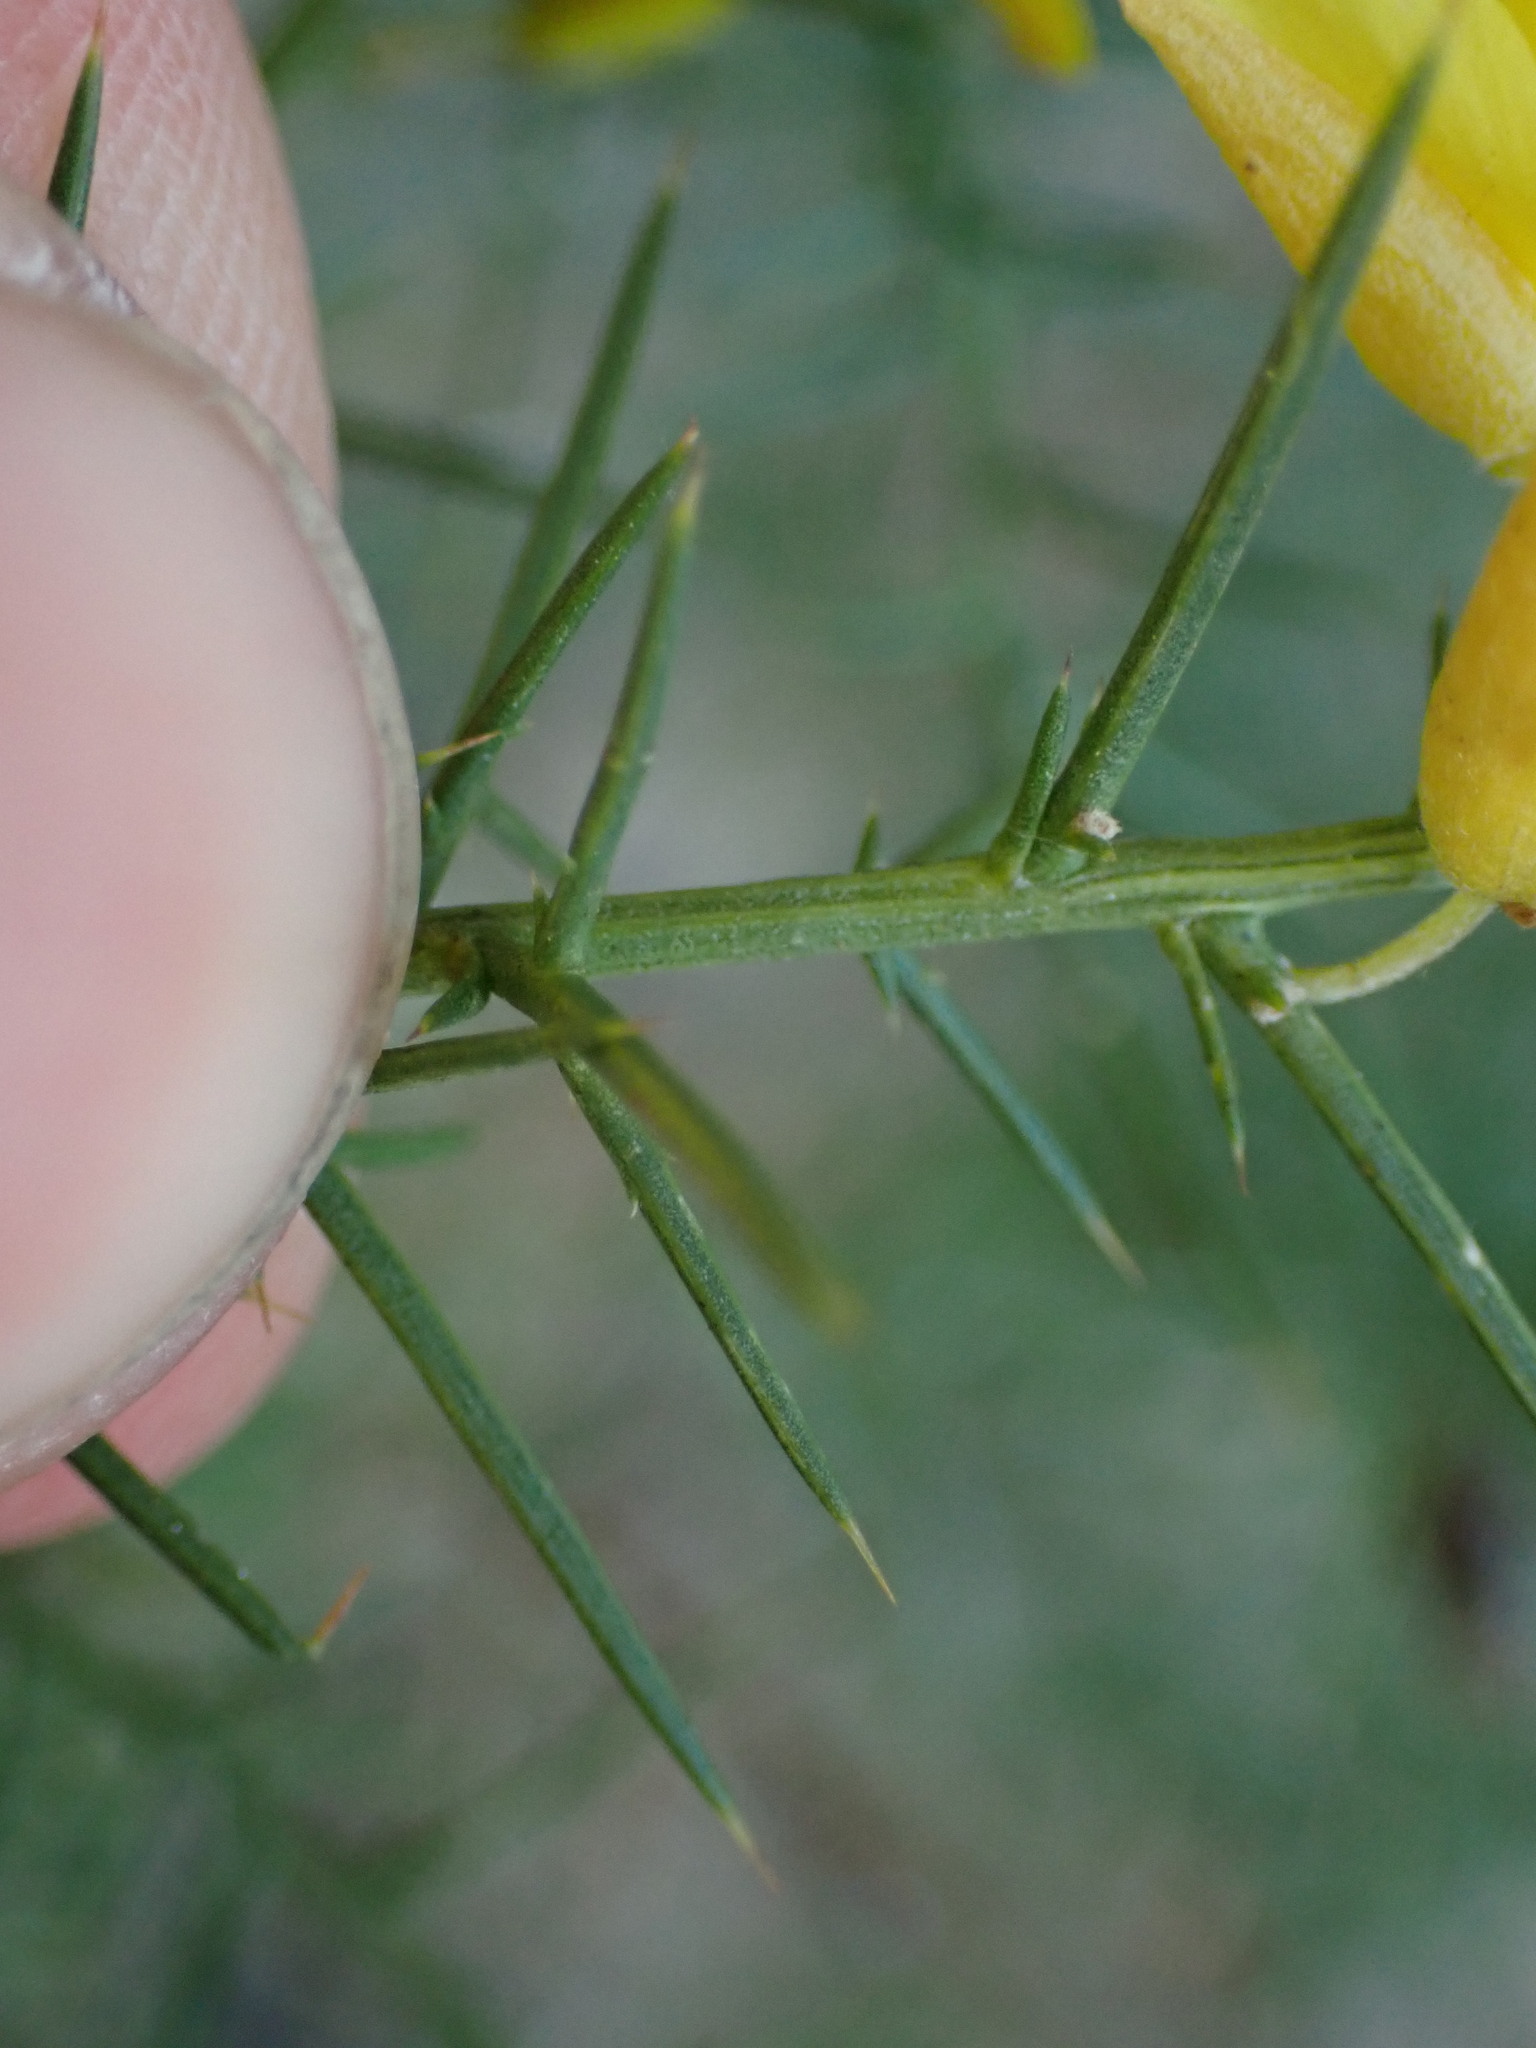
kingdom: Plantae
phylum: Tracheophyta
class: Magnoliopsida
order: Fabales
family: Fabaceae
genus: Ulex
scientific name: Ulex parviflorus
